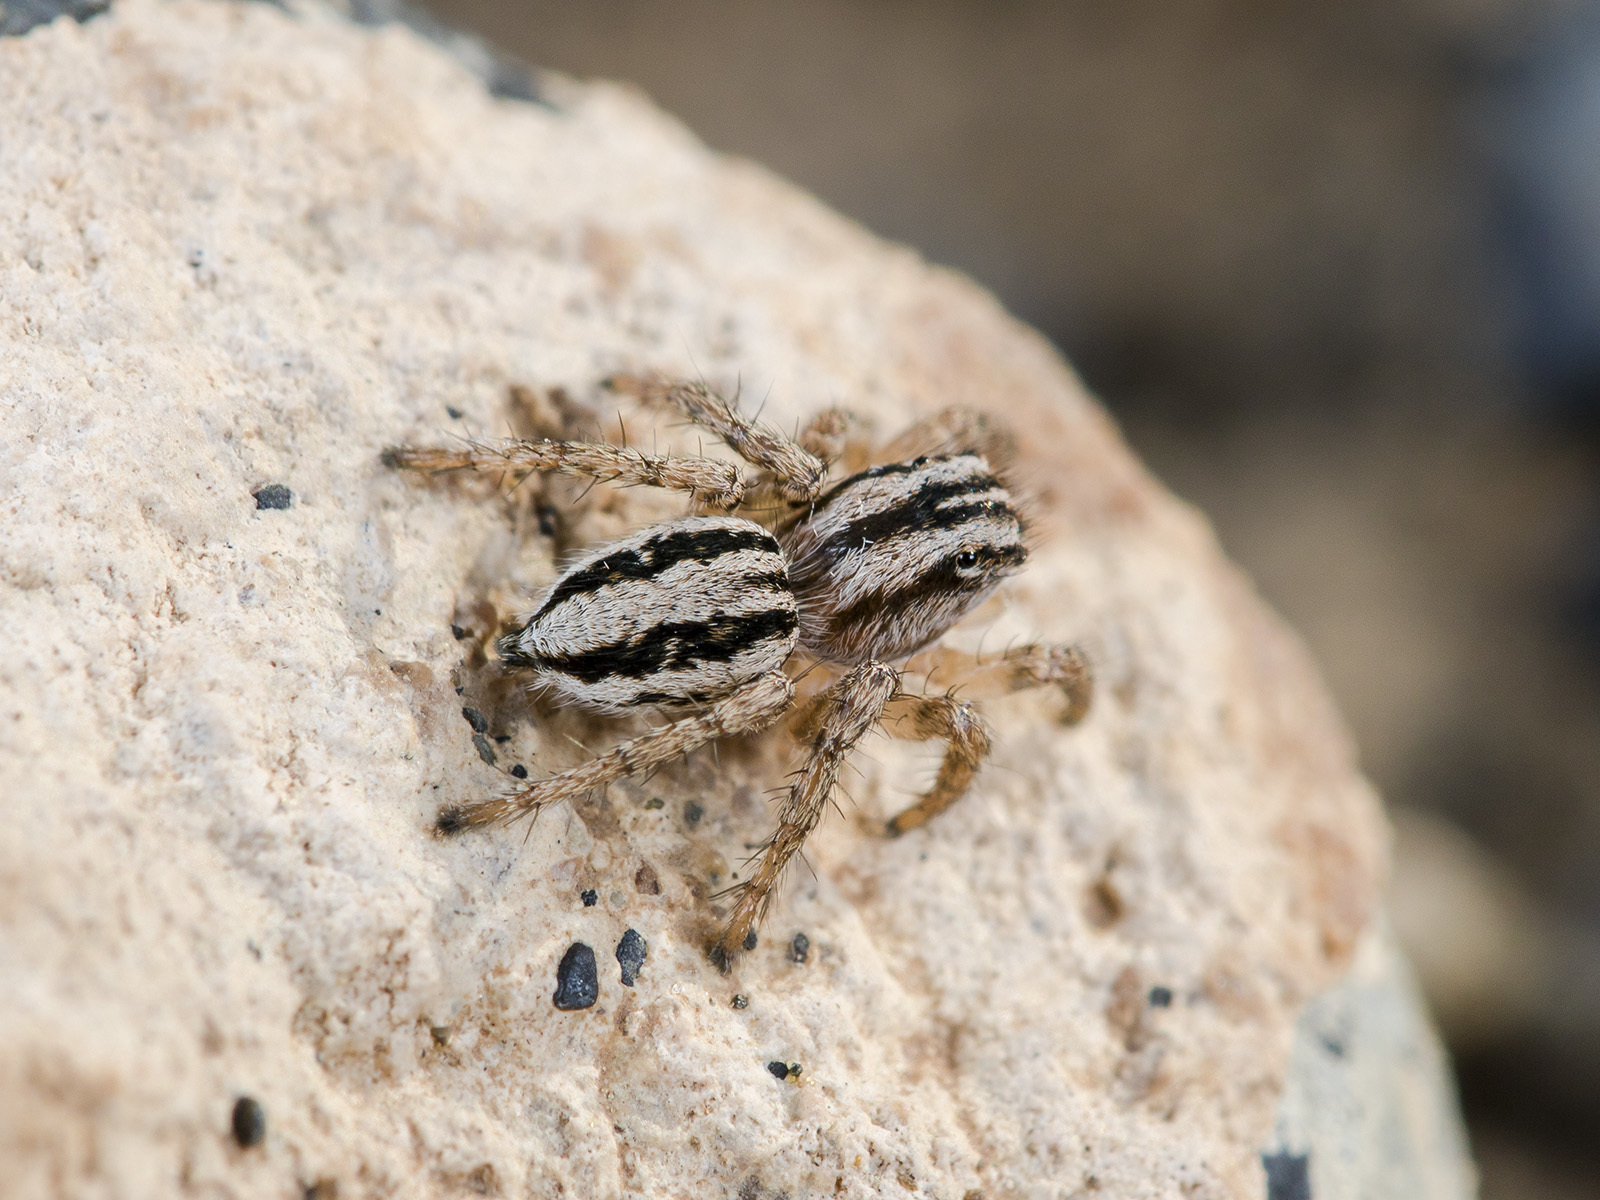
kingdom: Animalia
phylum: Arthropoda
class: Arachnida
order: Araneae
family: Salticidae
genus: Aelurillus
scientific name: Aelurillus m-nigrum
